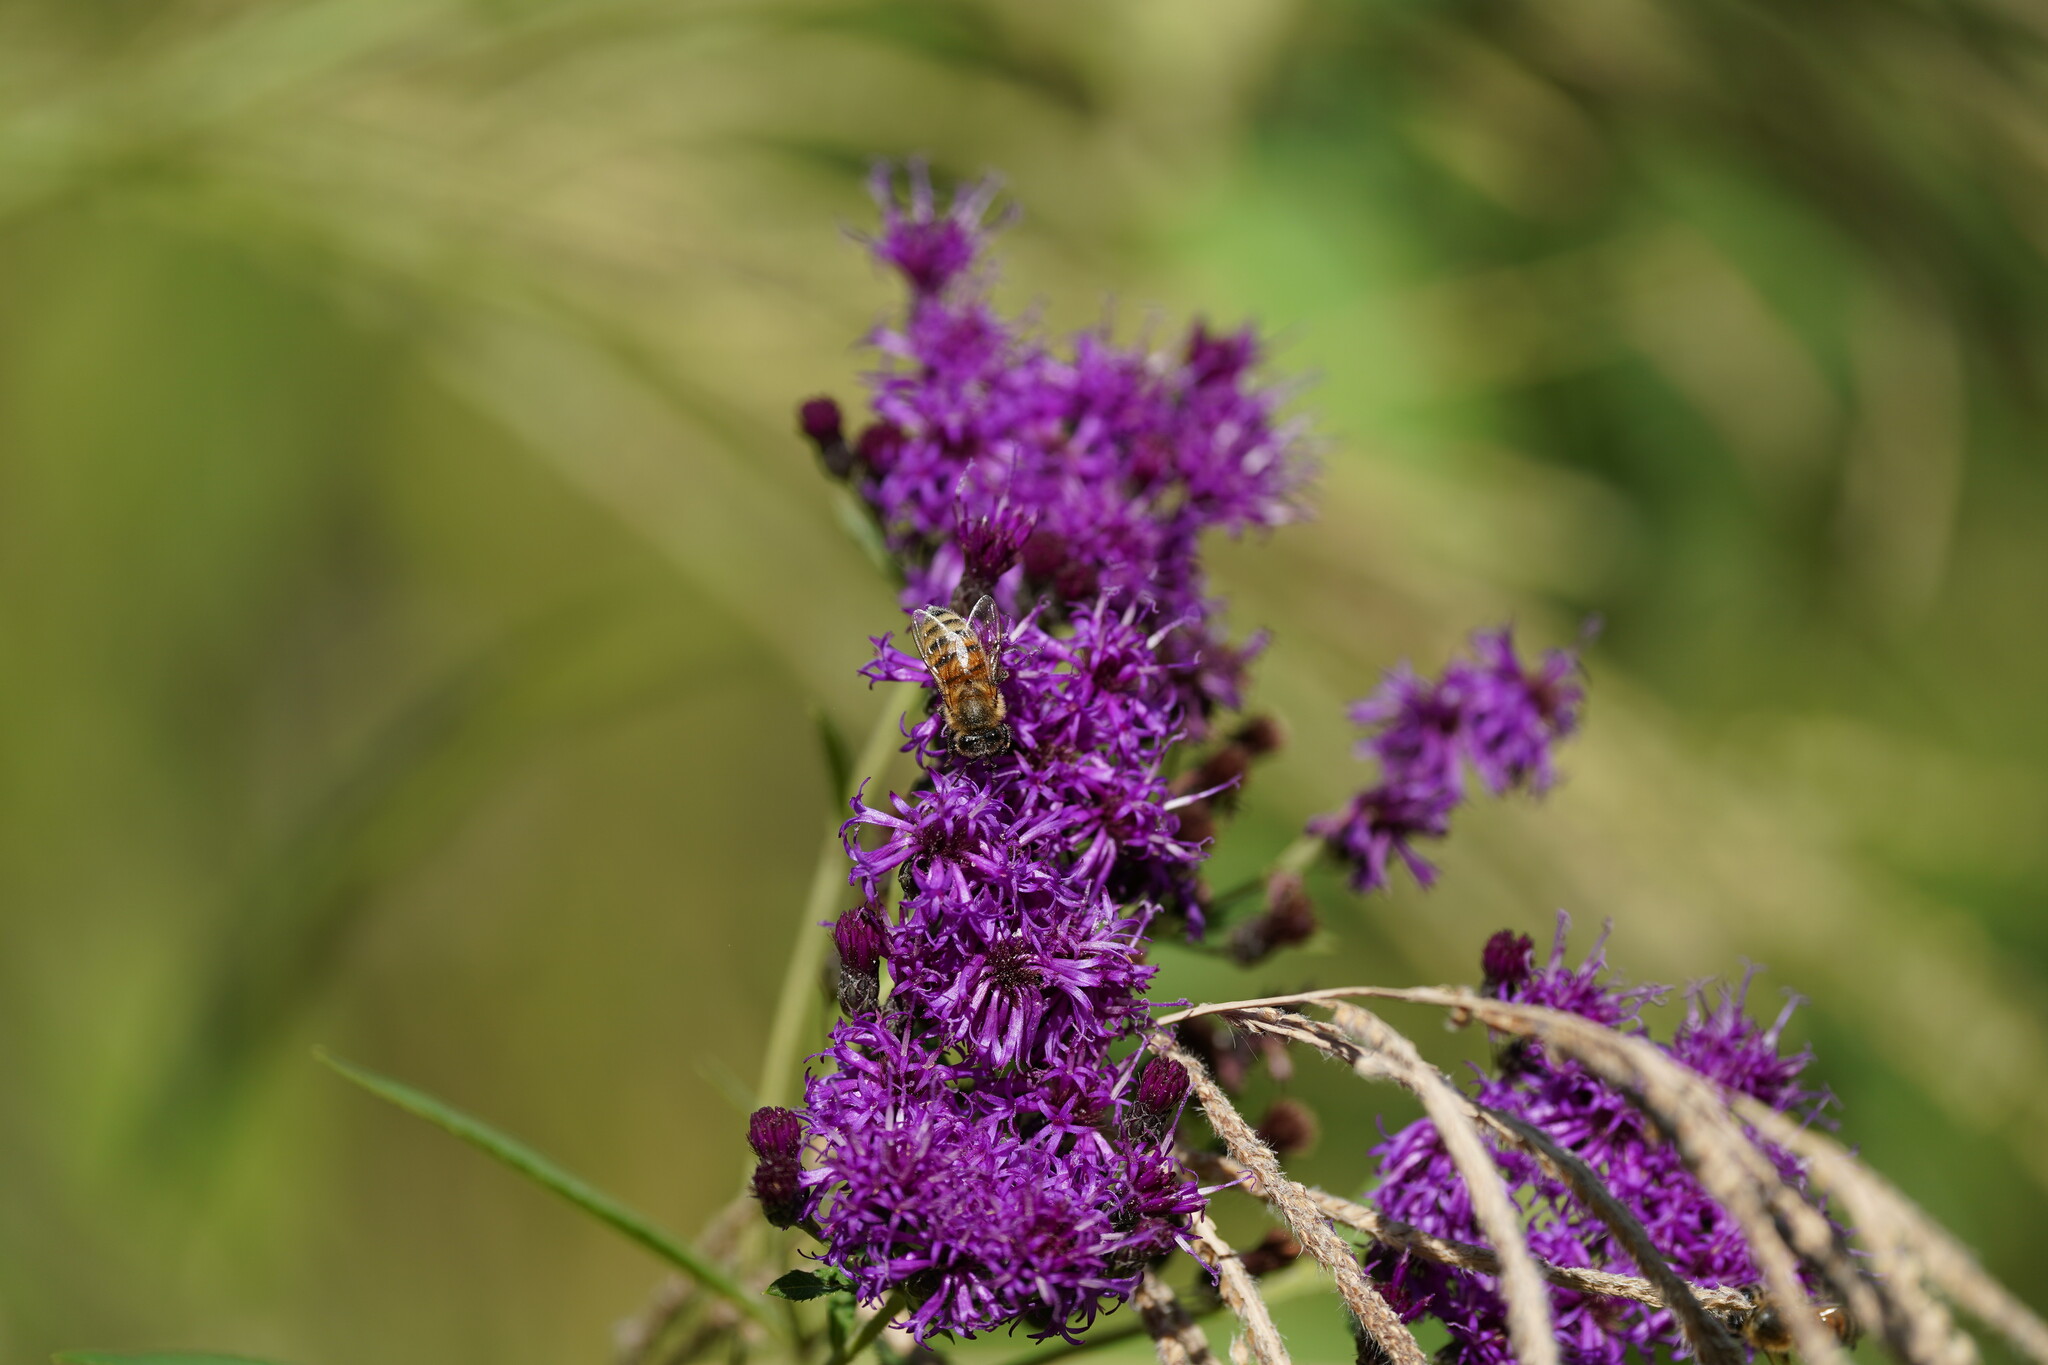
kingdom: Animalia
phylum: Arthropoda
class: Insecta
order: Hymenoptera
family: Apidae
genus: Apis
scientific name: Apis mellifera
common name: Honey bee
